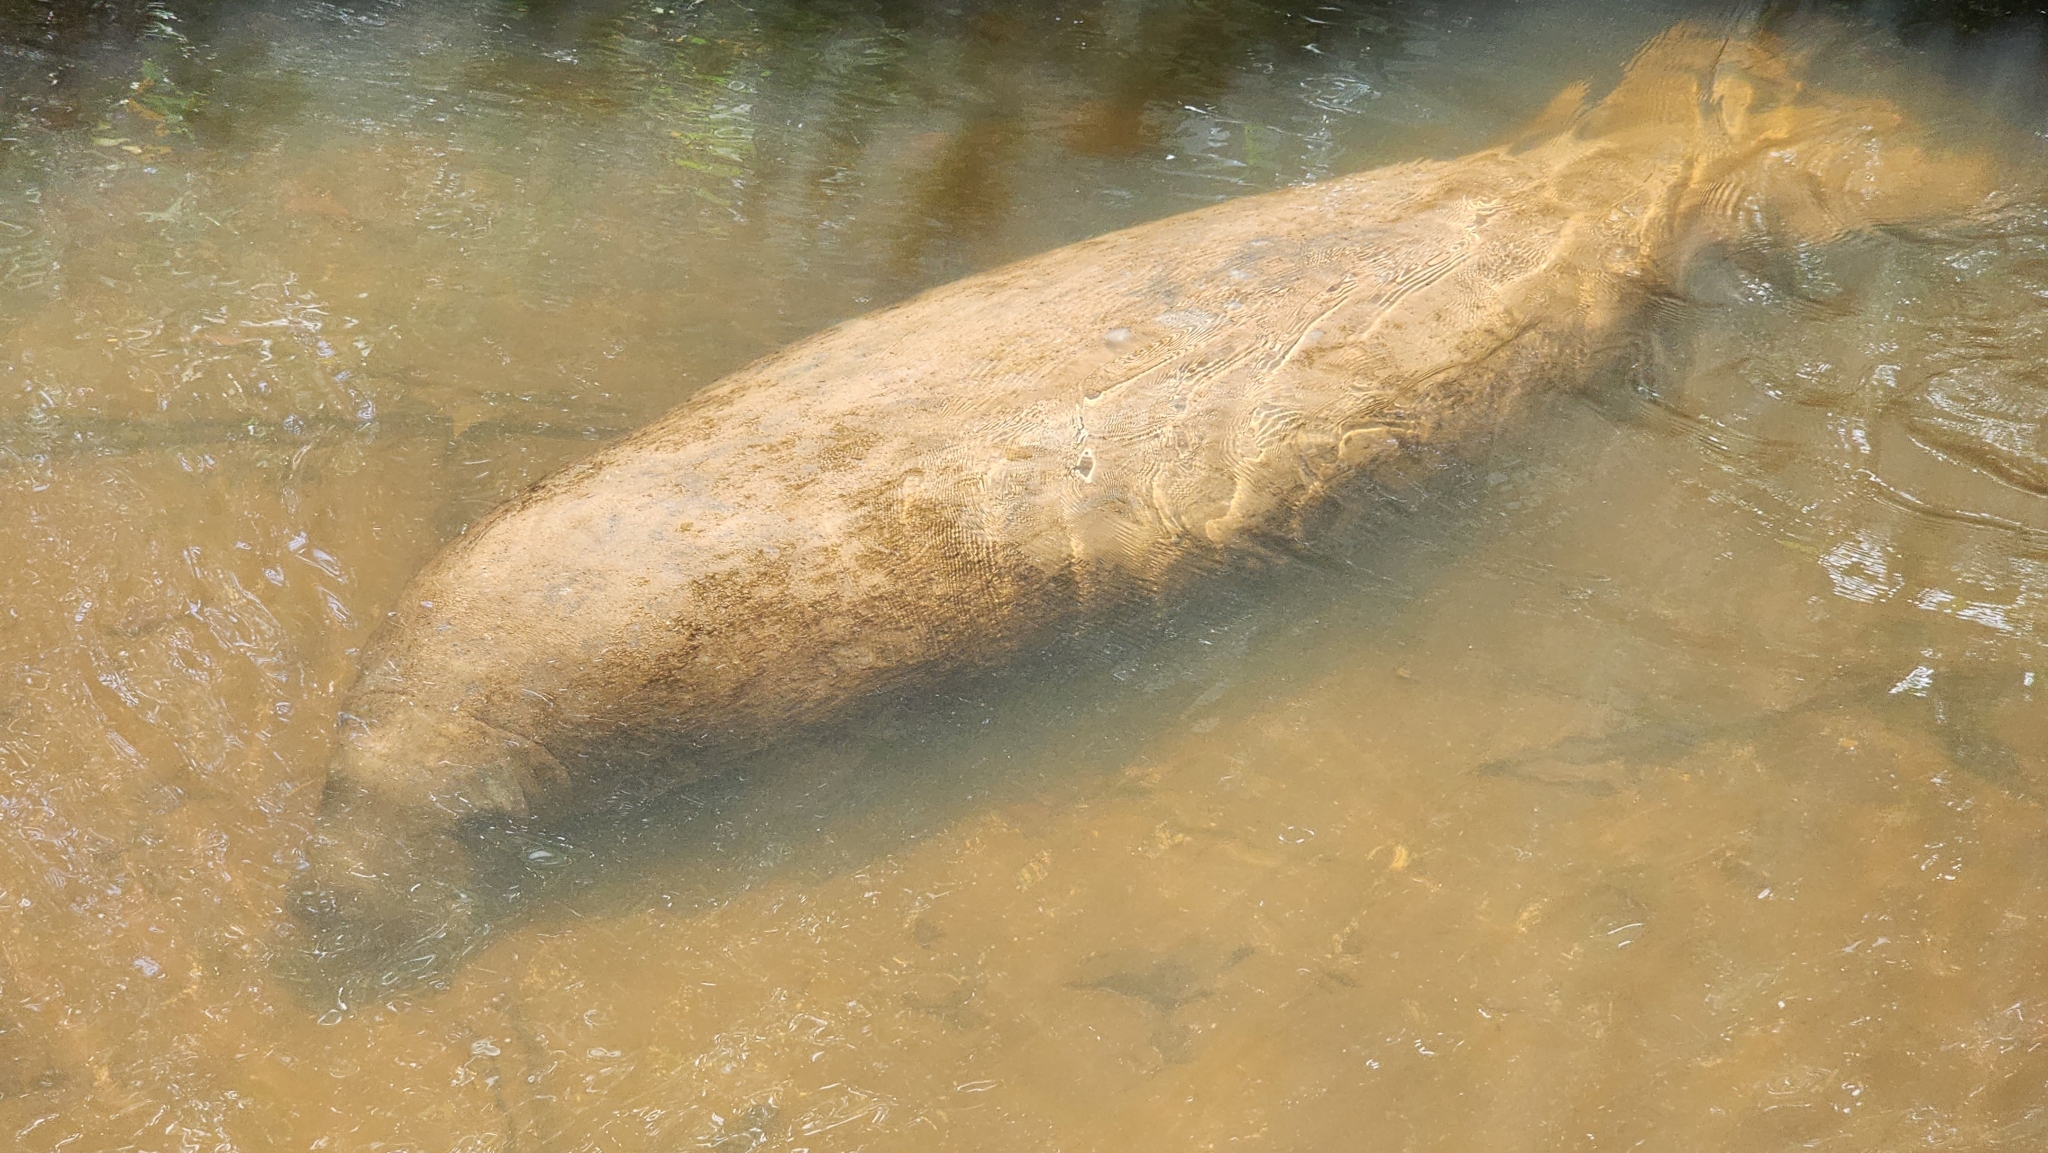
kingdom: Animalia
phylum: Chordata
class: Mammalia
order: Sirenia
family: Trichechidae
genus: Trichechus
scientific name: Trichechus manatus
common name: West indian manatee
